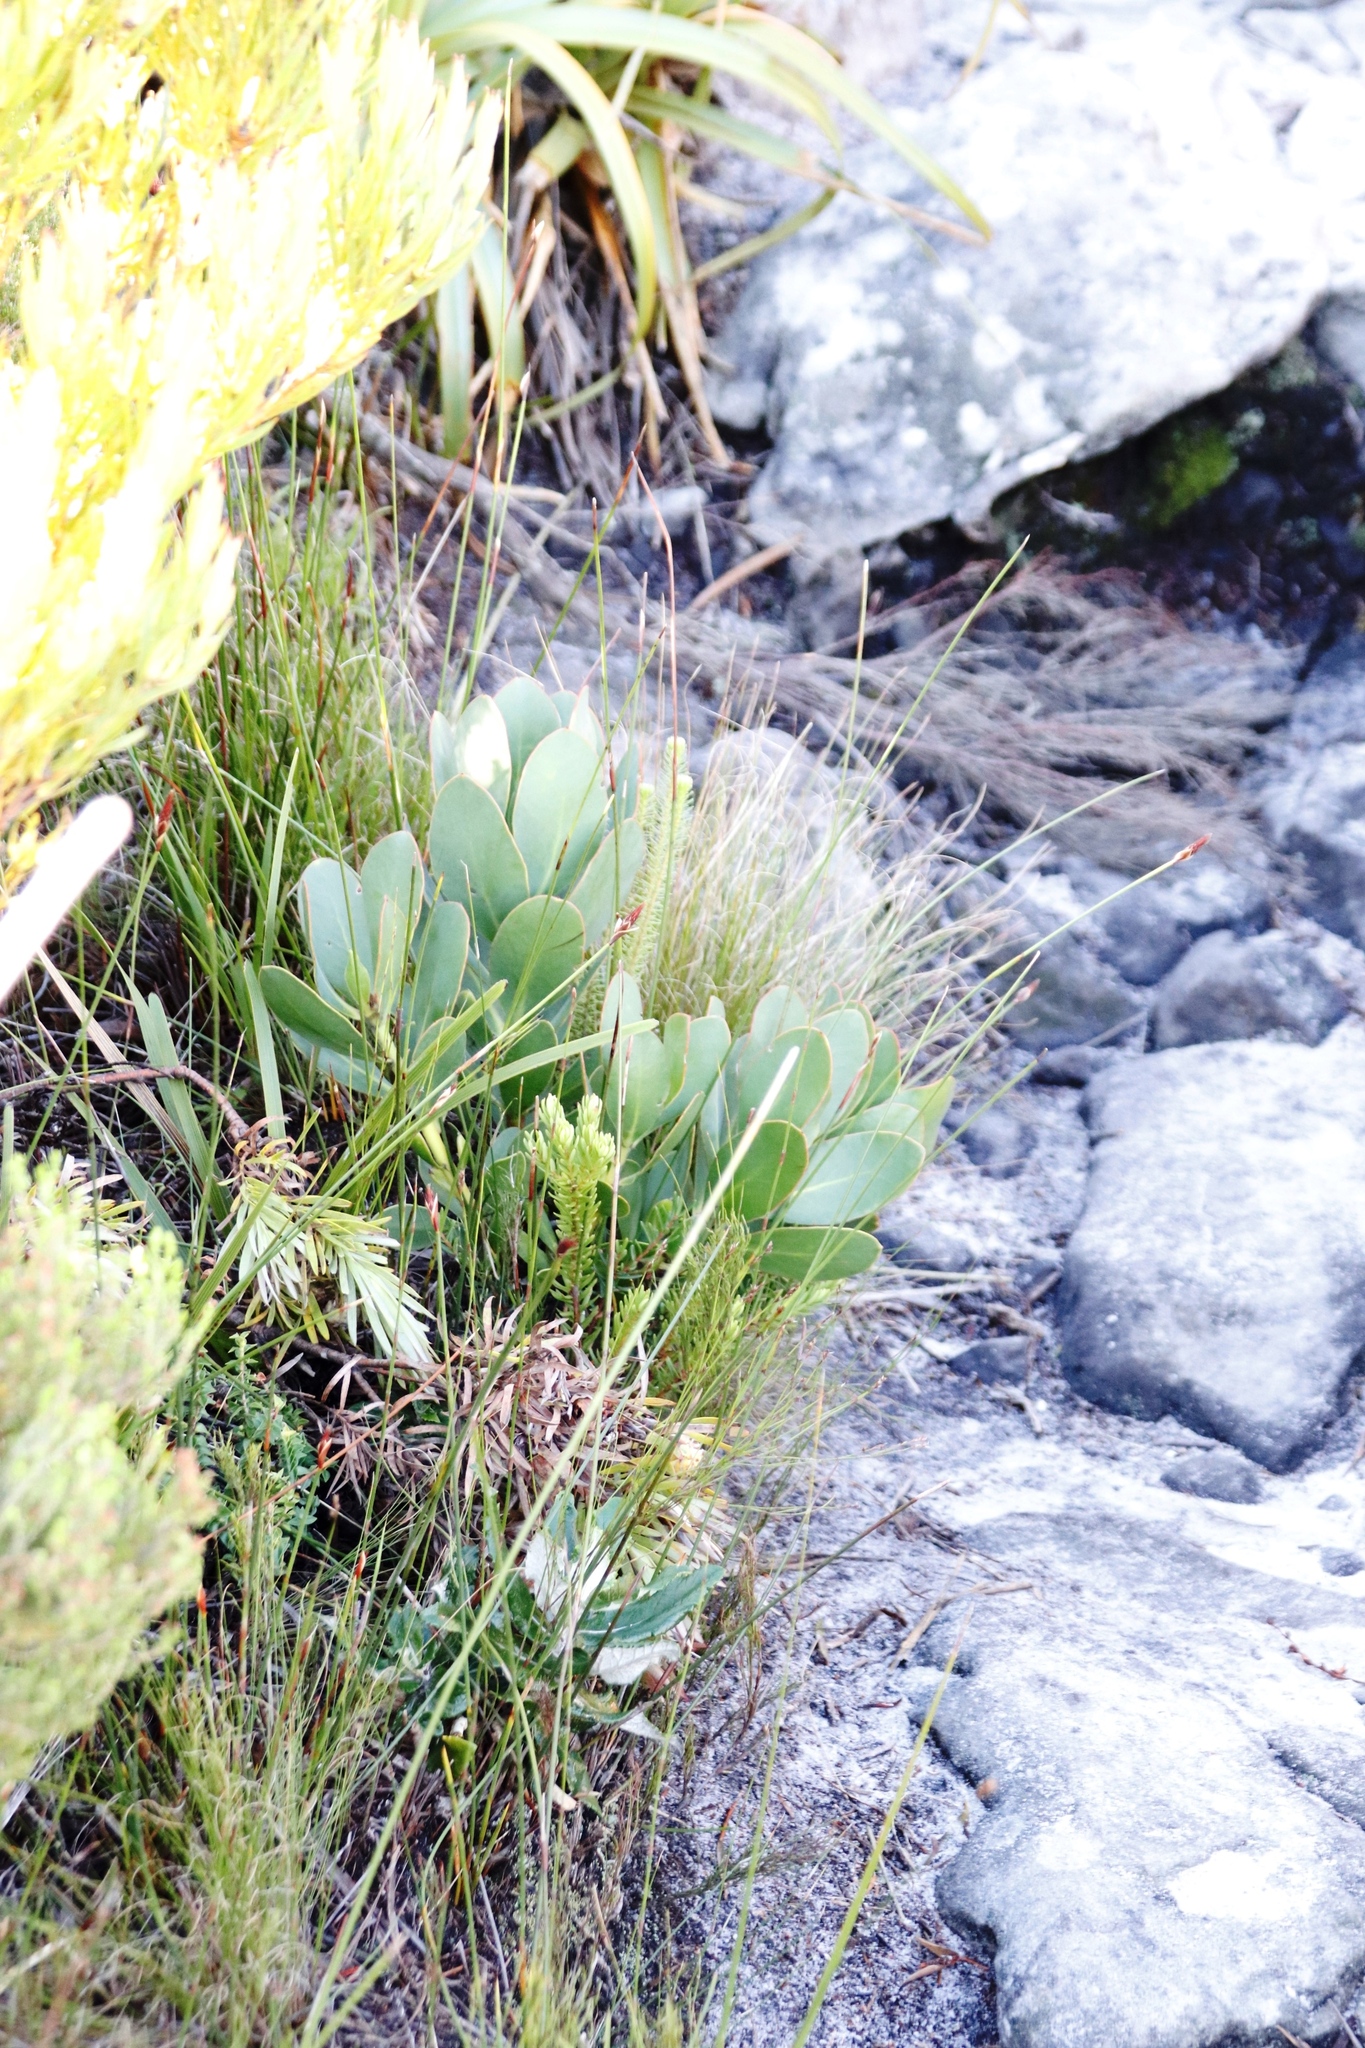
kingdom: Plantae
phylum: Tracheophyta
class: Magnoliopsida
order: Proteales
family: Proteaceae
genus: Protea
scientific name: Protea speciosa
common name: Brown-beard sugarbush
